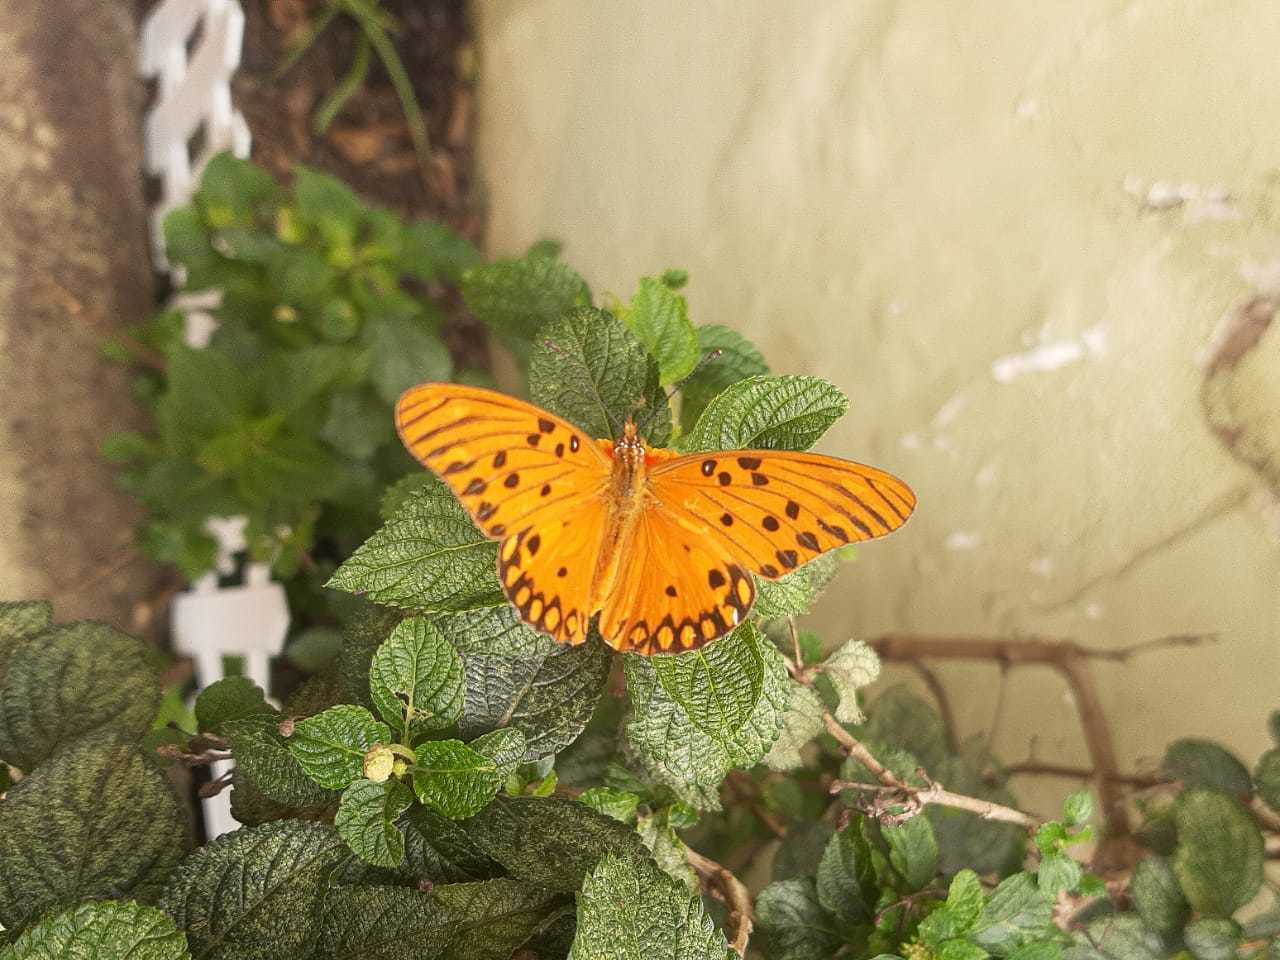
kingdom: Animalia
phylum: Arthropoda
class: Insecta
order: Lepidoptera
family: Nymphalidae
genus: Dione
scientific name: Dione vanillae
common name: Gulf fritillary
